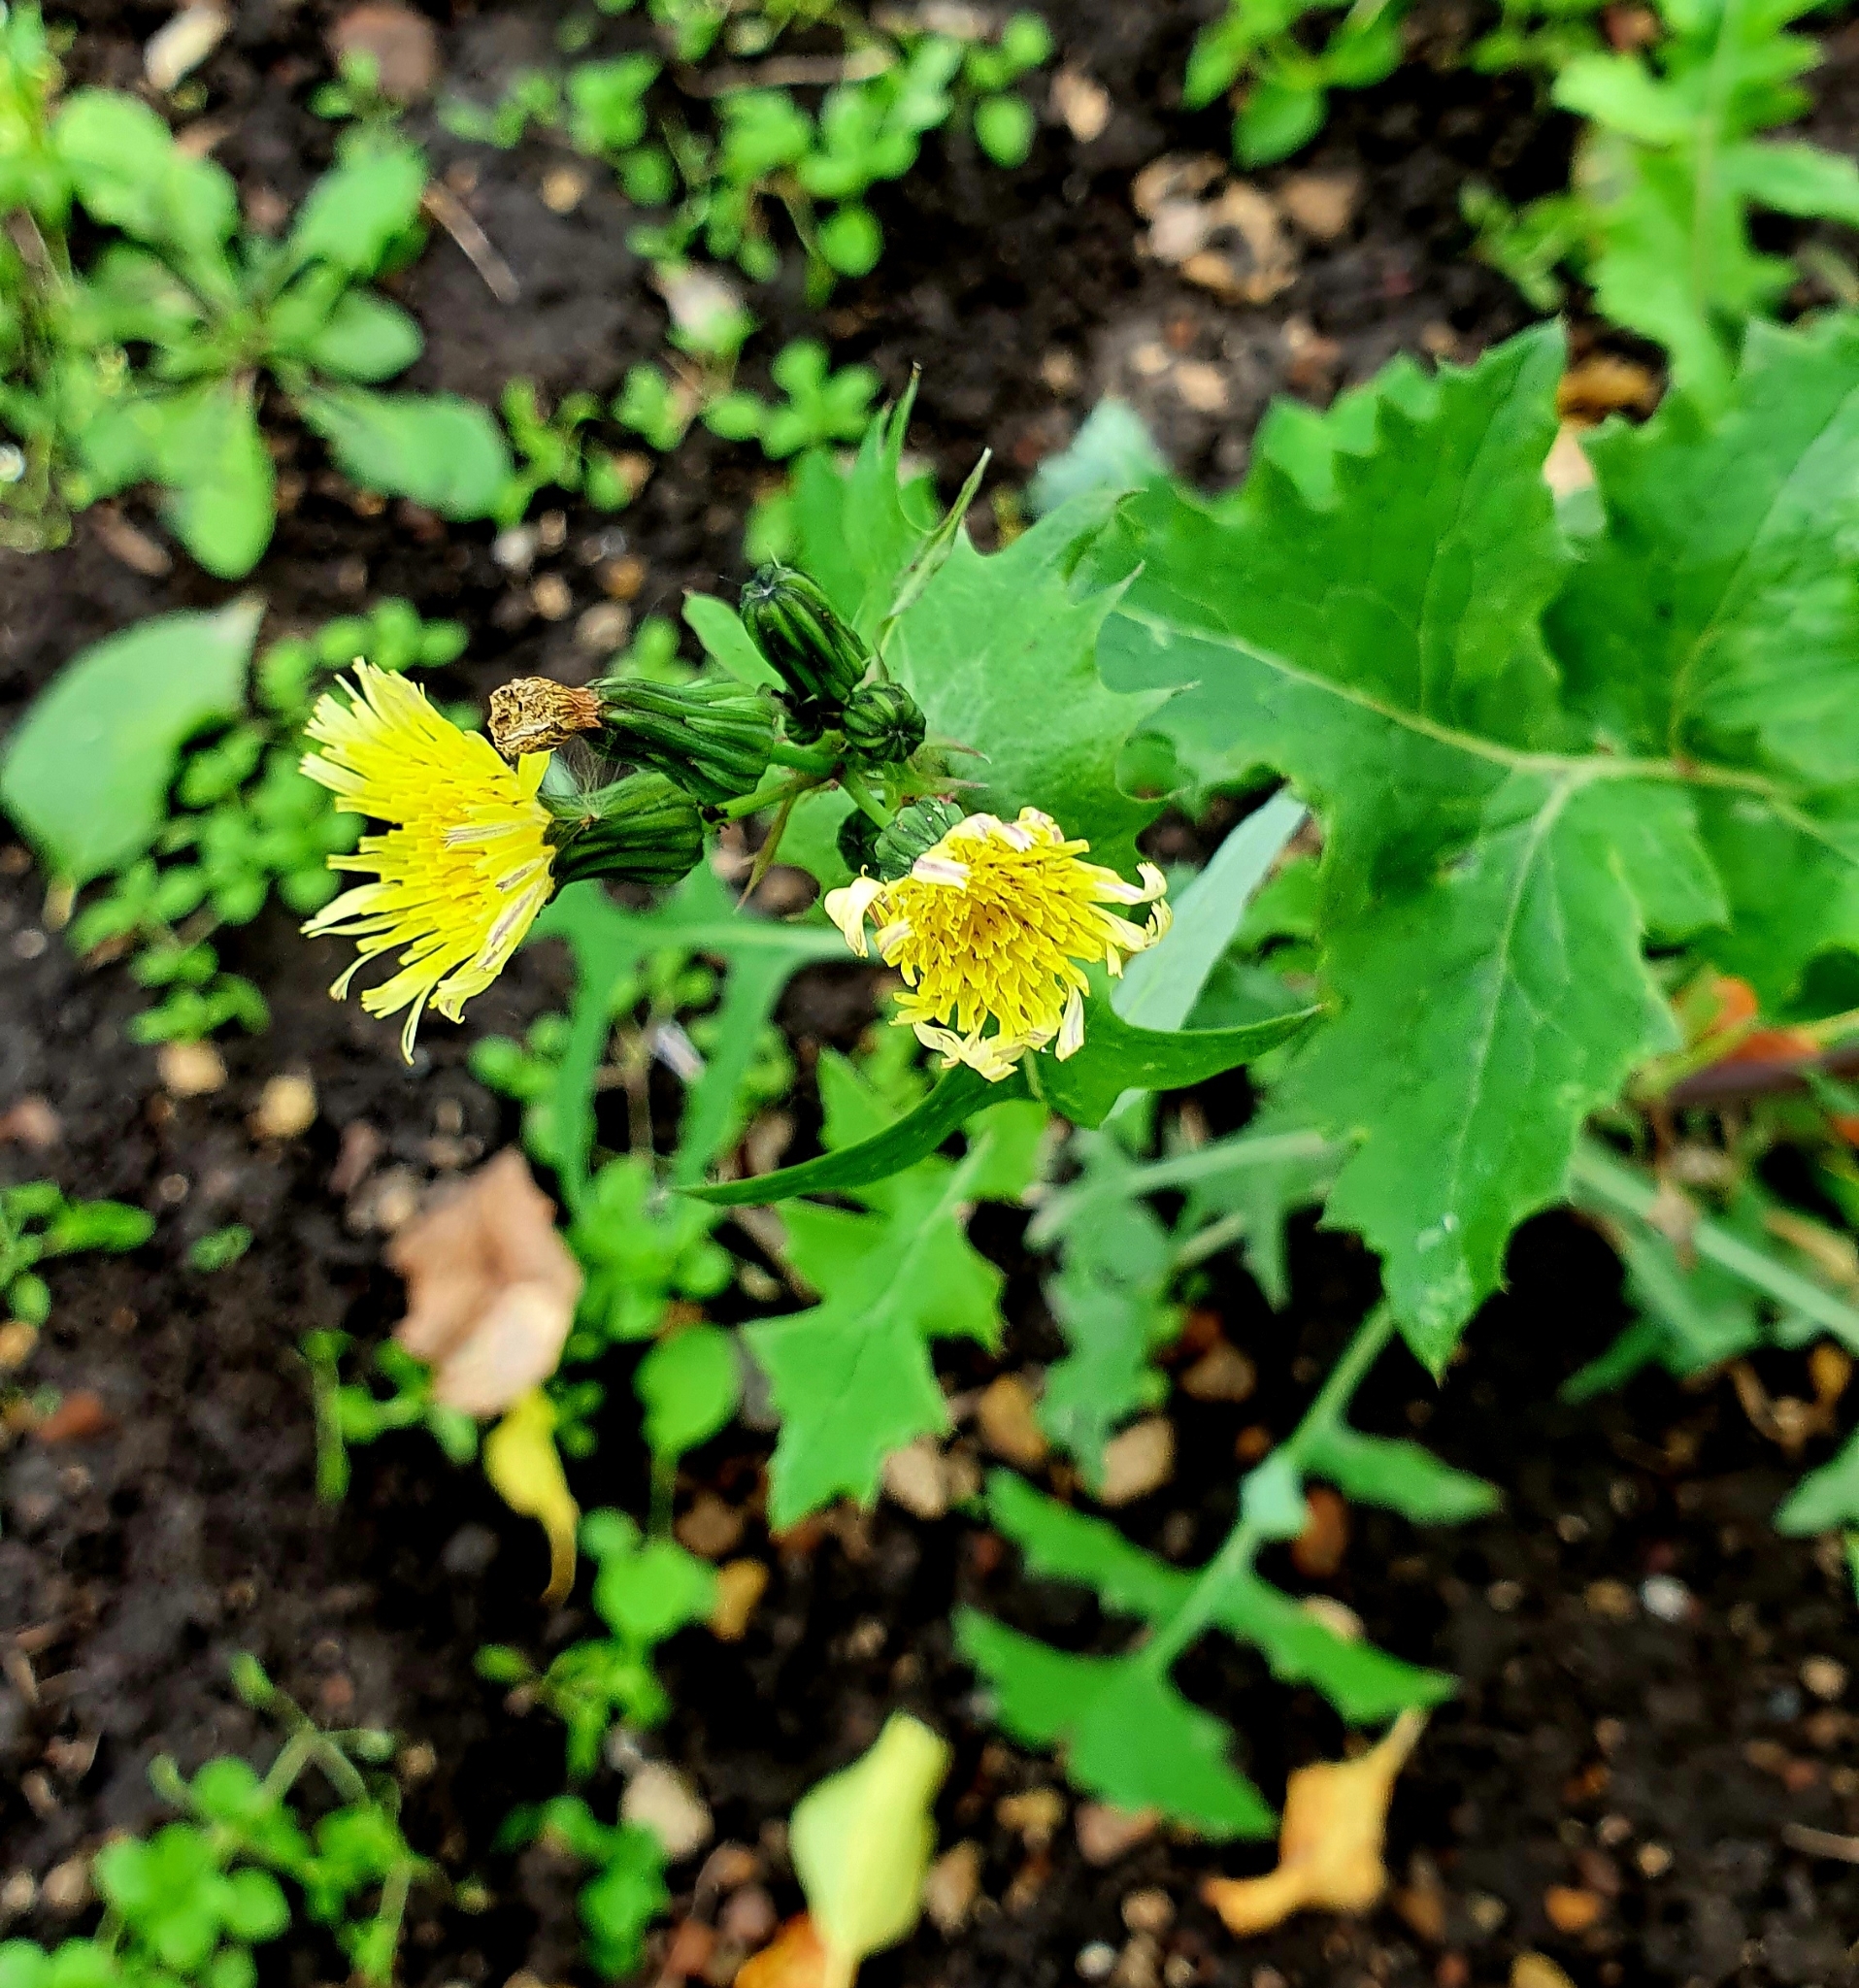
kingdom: Plantae
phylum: Tracheophyta
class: Magnoliopsida
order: Asterales
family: Asteraceae
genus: Sonchus
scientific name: Sonchus oleraceus
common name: Common sowthistle
